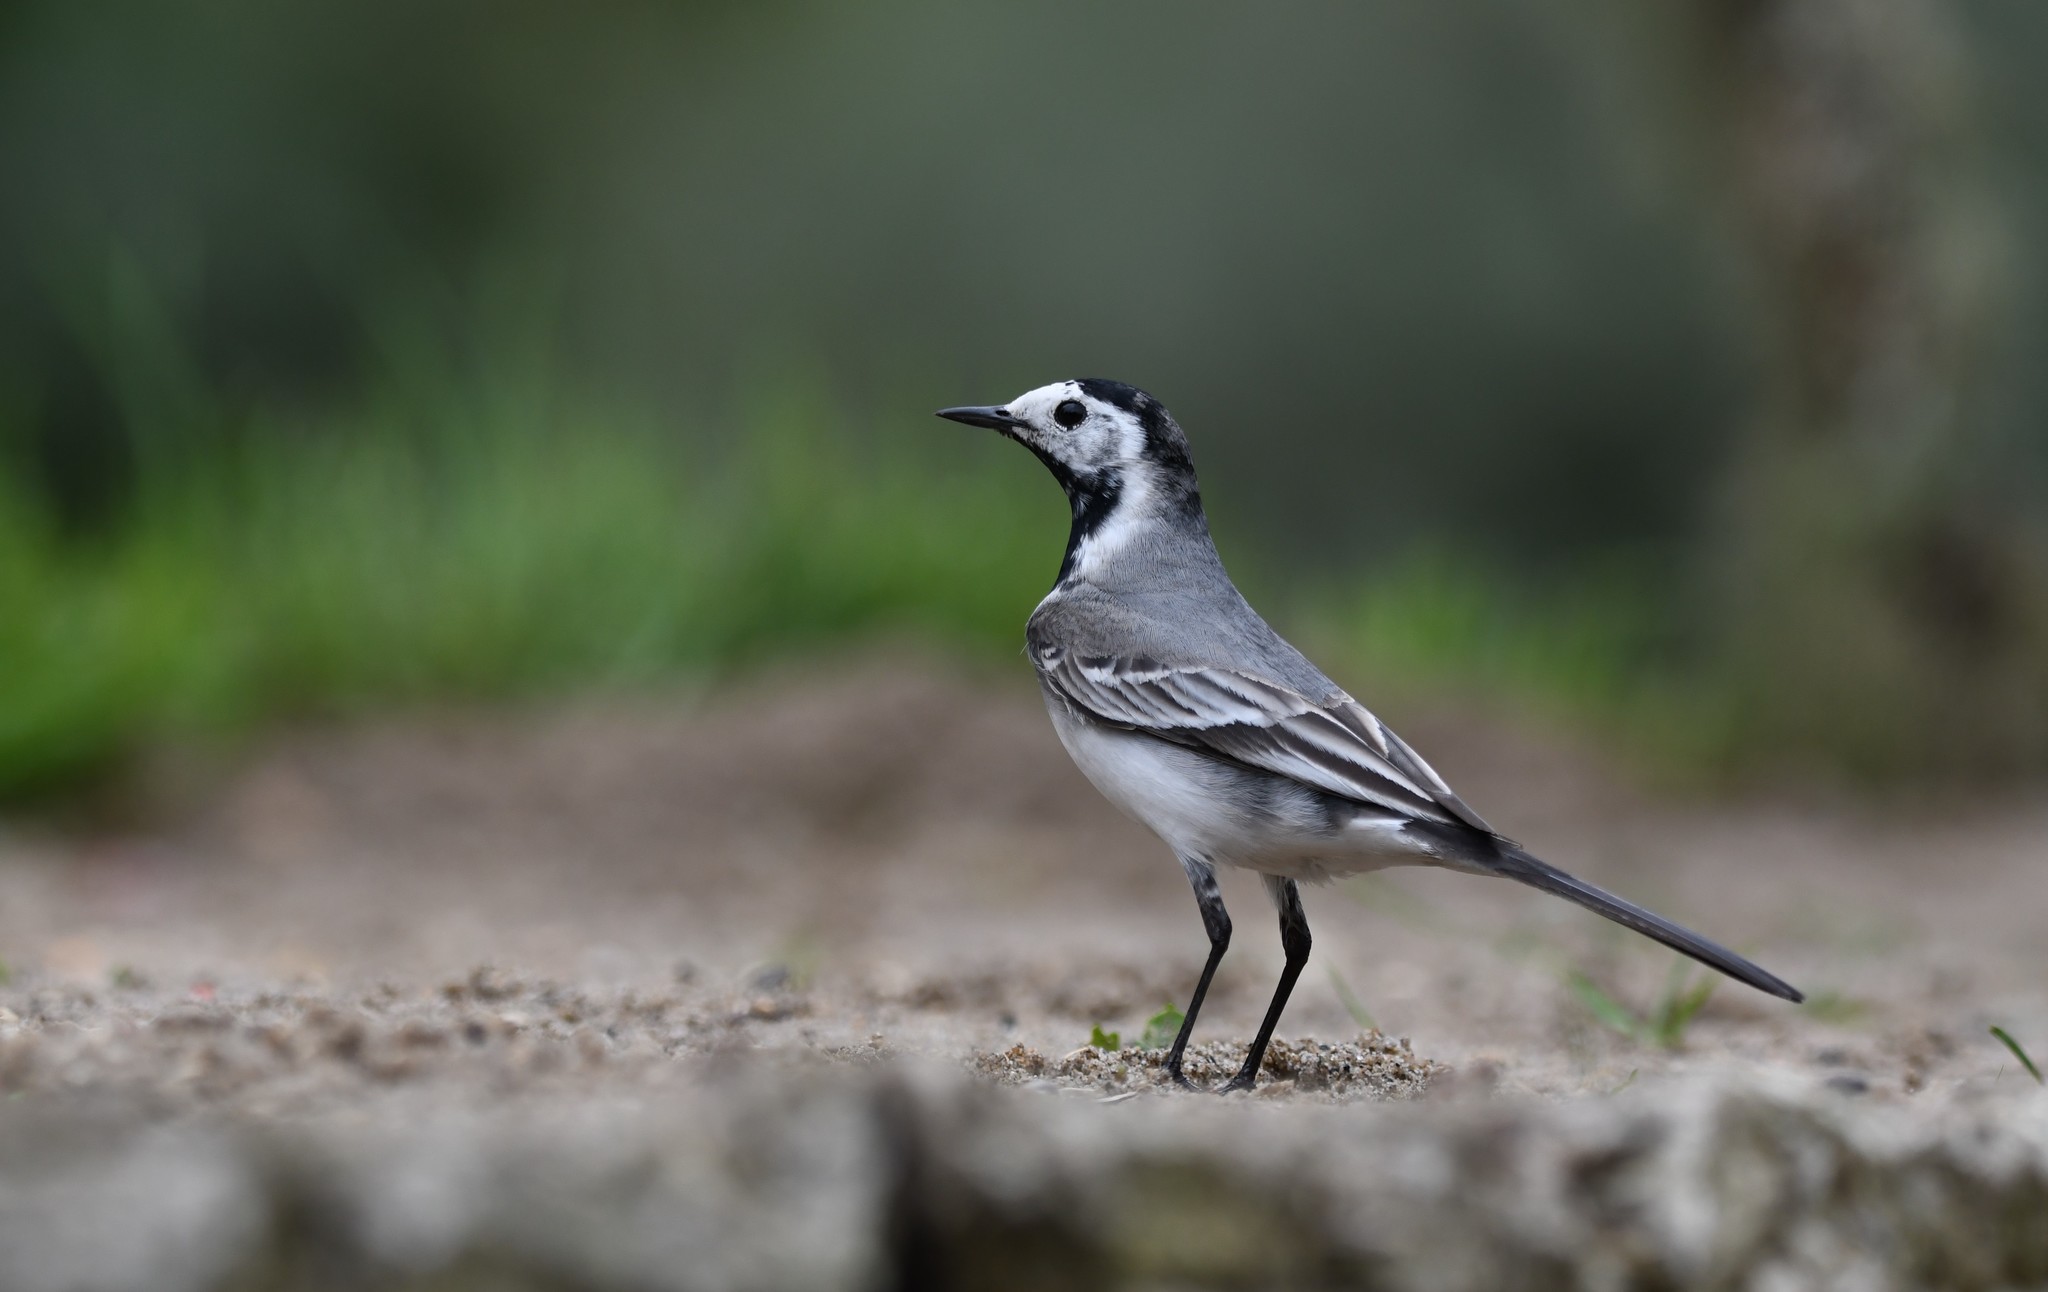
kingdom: Animalia
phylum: Chordata
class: Aves
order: Passeriformes
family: Motacillidae
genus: Motacilla
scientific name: Motacilla alba
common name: White wagtail
